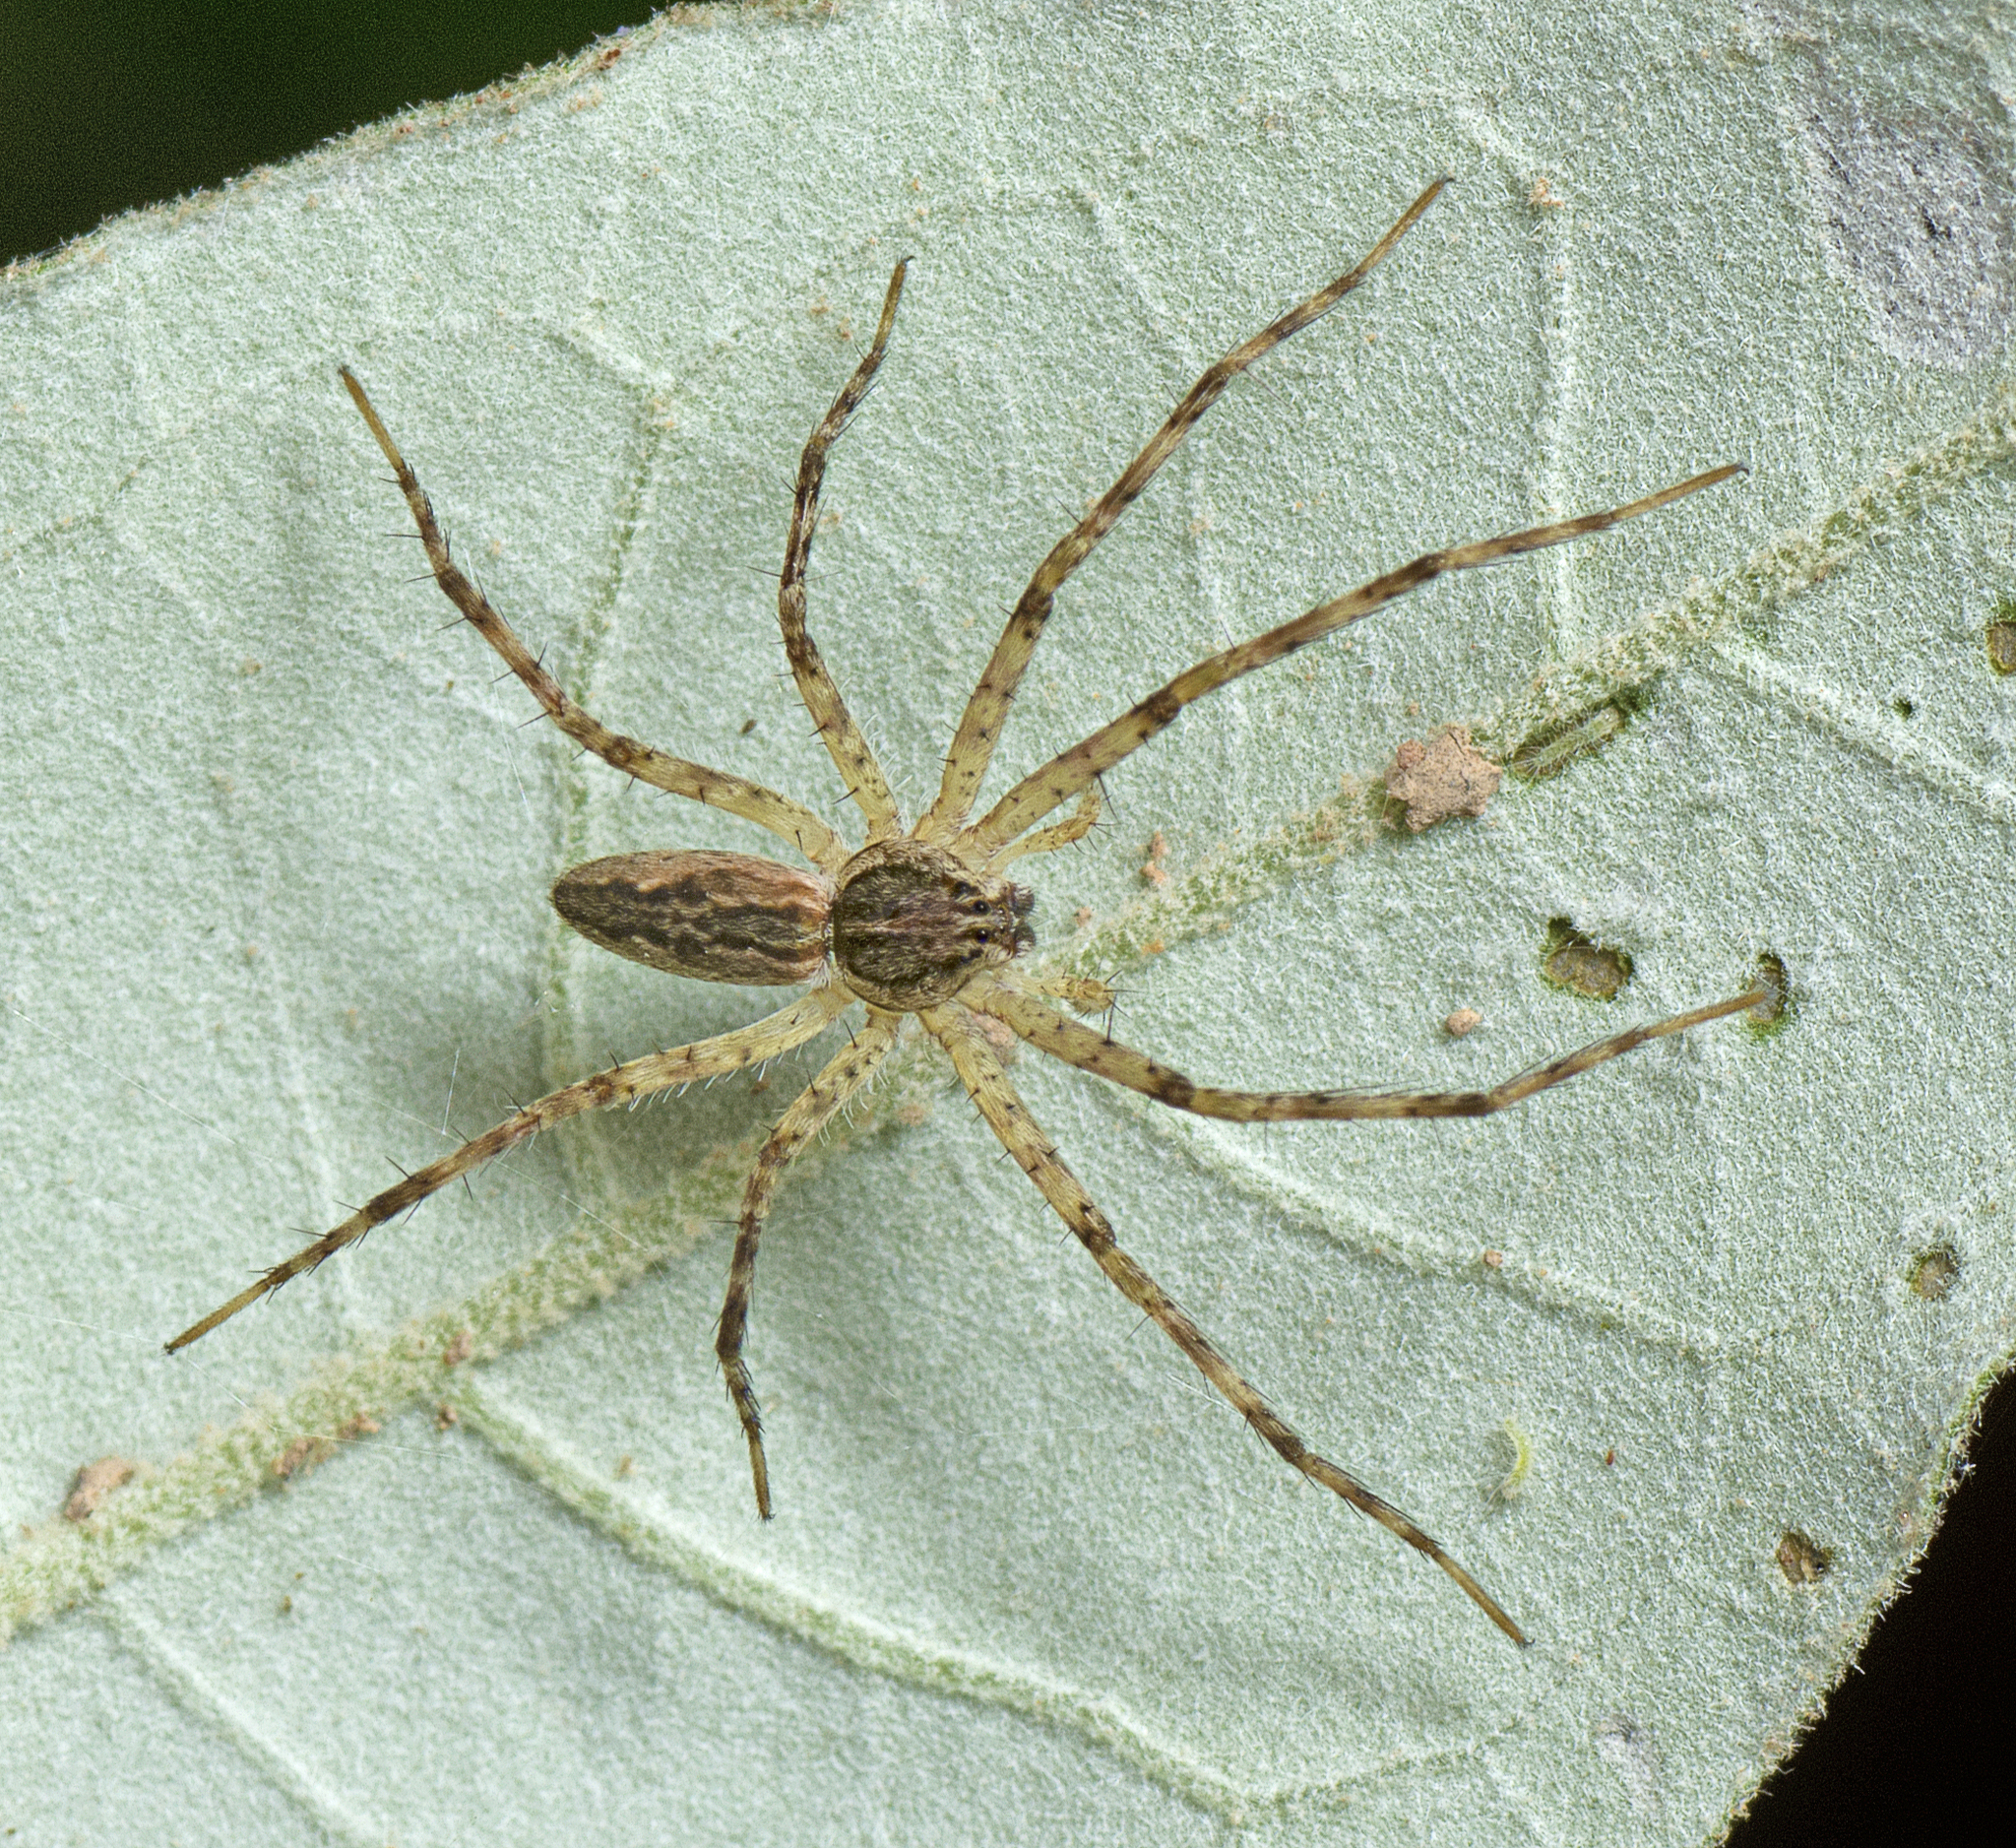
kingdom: Animalia
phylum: Arthropoda
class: Arachnida
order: Araneae
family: Pisauridae
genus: Megadolomedes
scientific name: Megadolomedes trux
